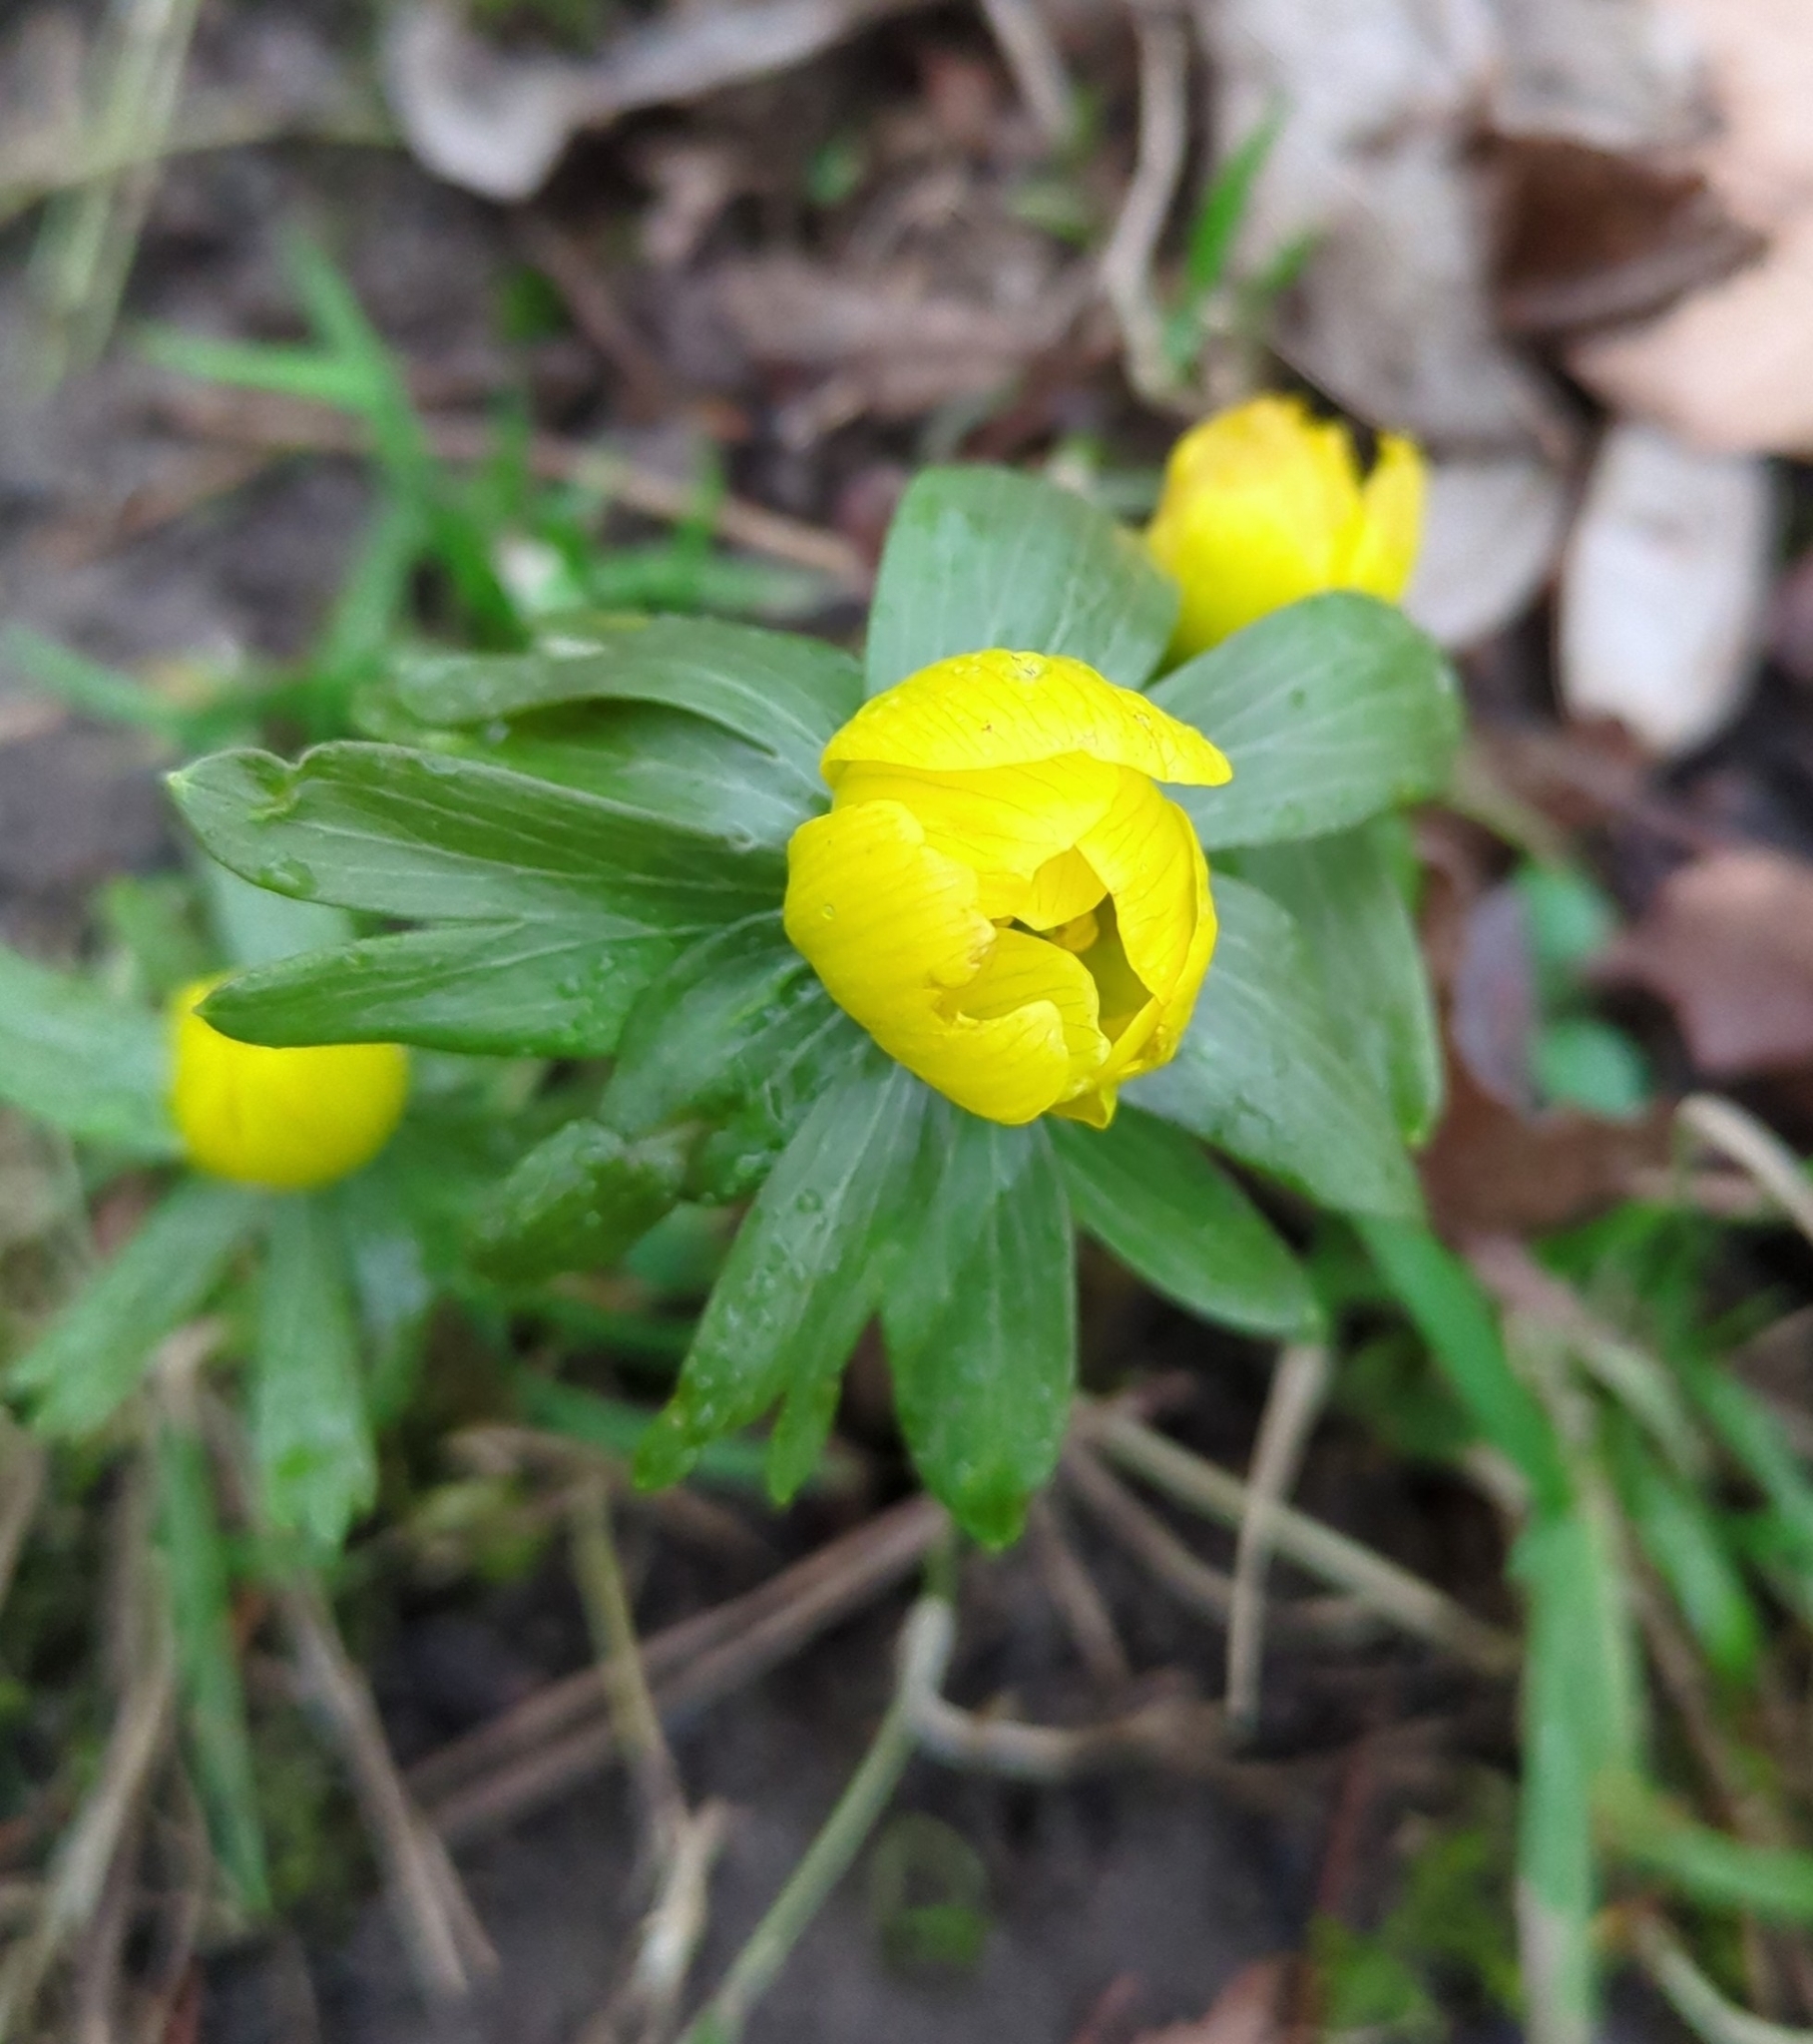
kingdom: Plantae
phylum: Tracheophyta
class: Magnoliopsida
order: Ranunculales
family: Ranunculaceae
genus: Eranthis
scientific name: Eranthis hyemalis
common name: Winter aconite
